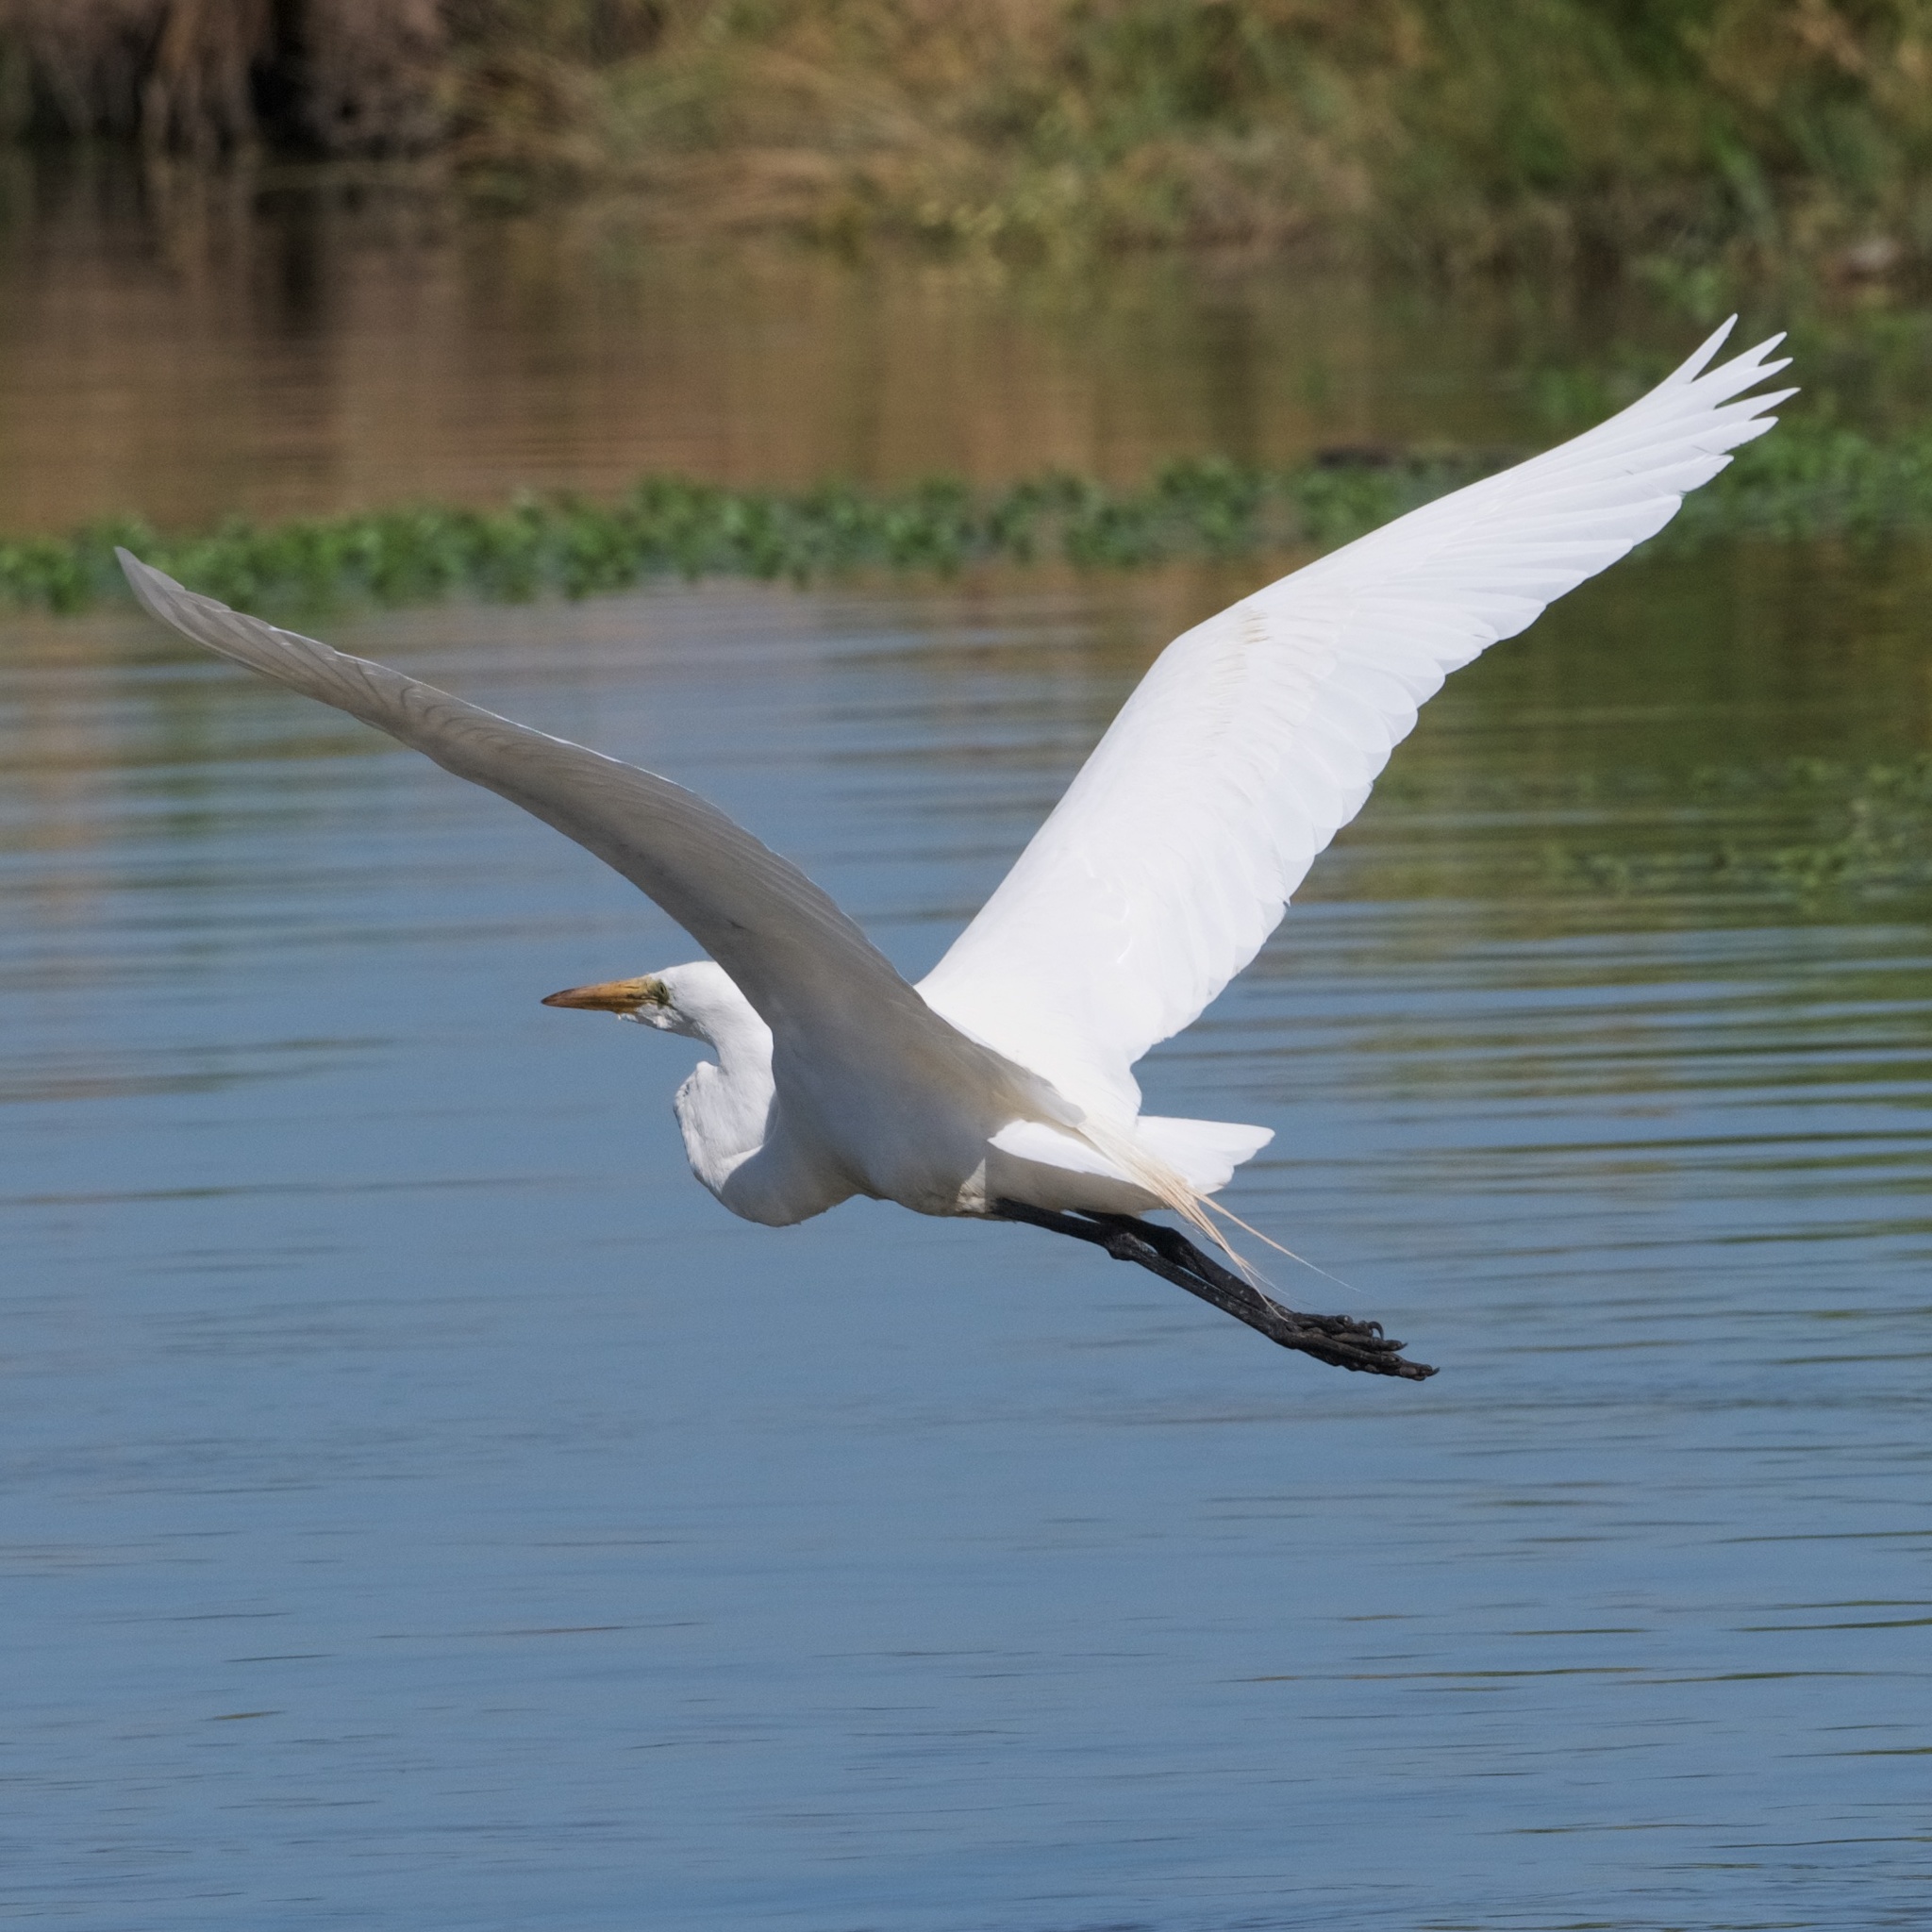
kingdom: Animalia
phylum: Chordata
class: Aves
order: Pelecaniformes
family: Ardeidae
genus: Ardea
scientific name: Ardea alba
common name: Great egret
